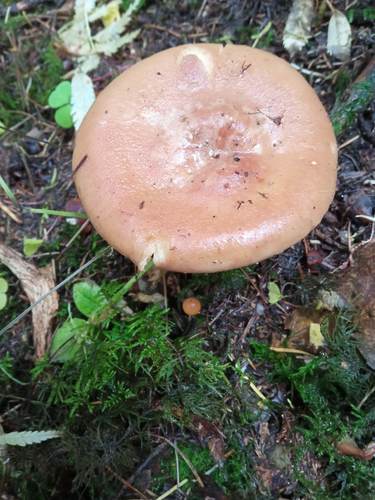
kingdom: Fungi
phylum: Basidiomycota
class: Agaricomycetes
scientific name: Agaricomycetes
